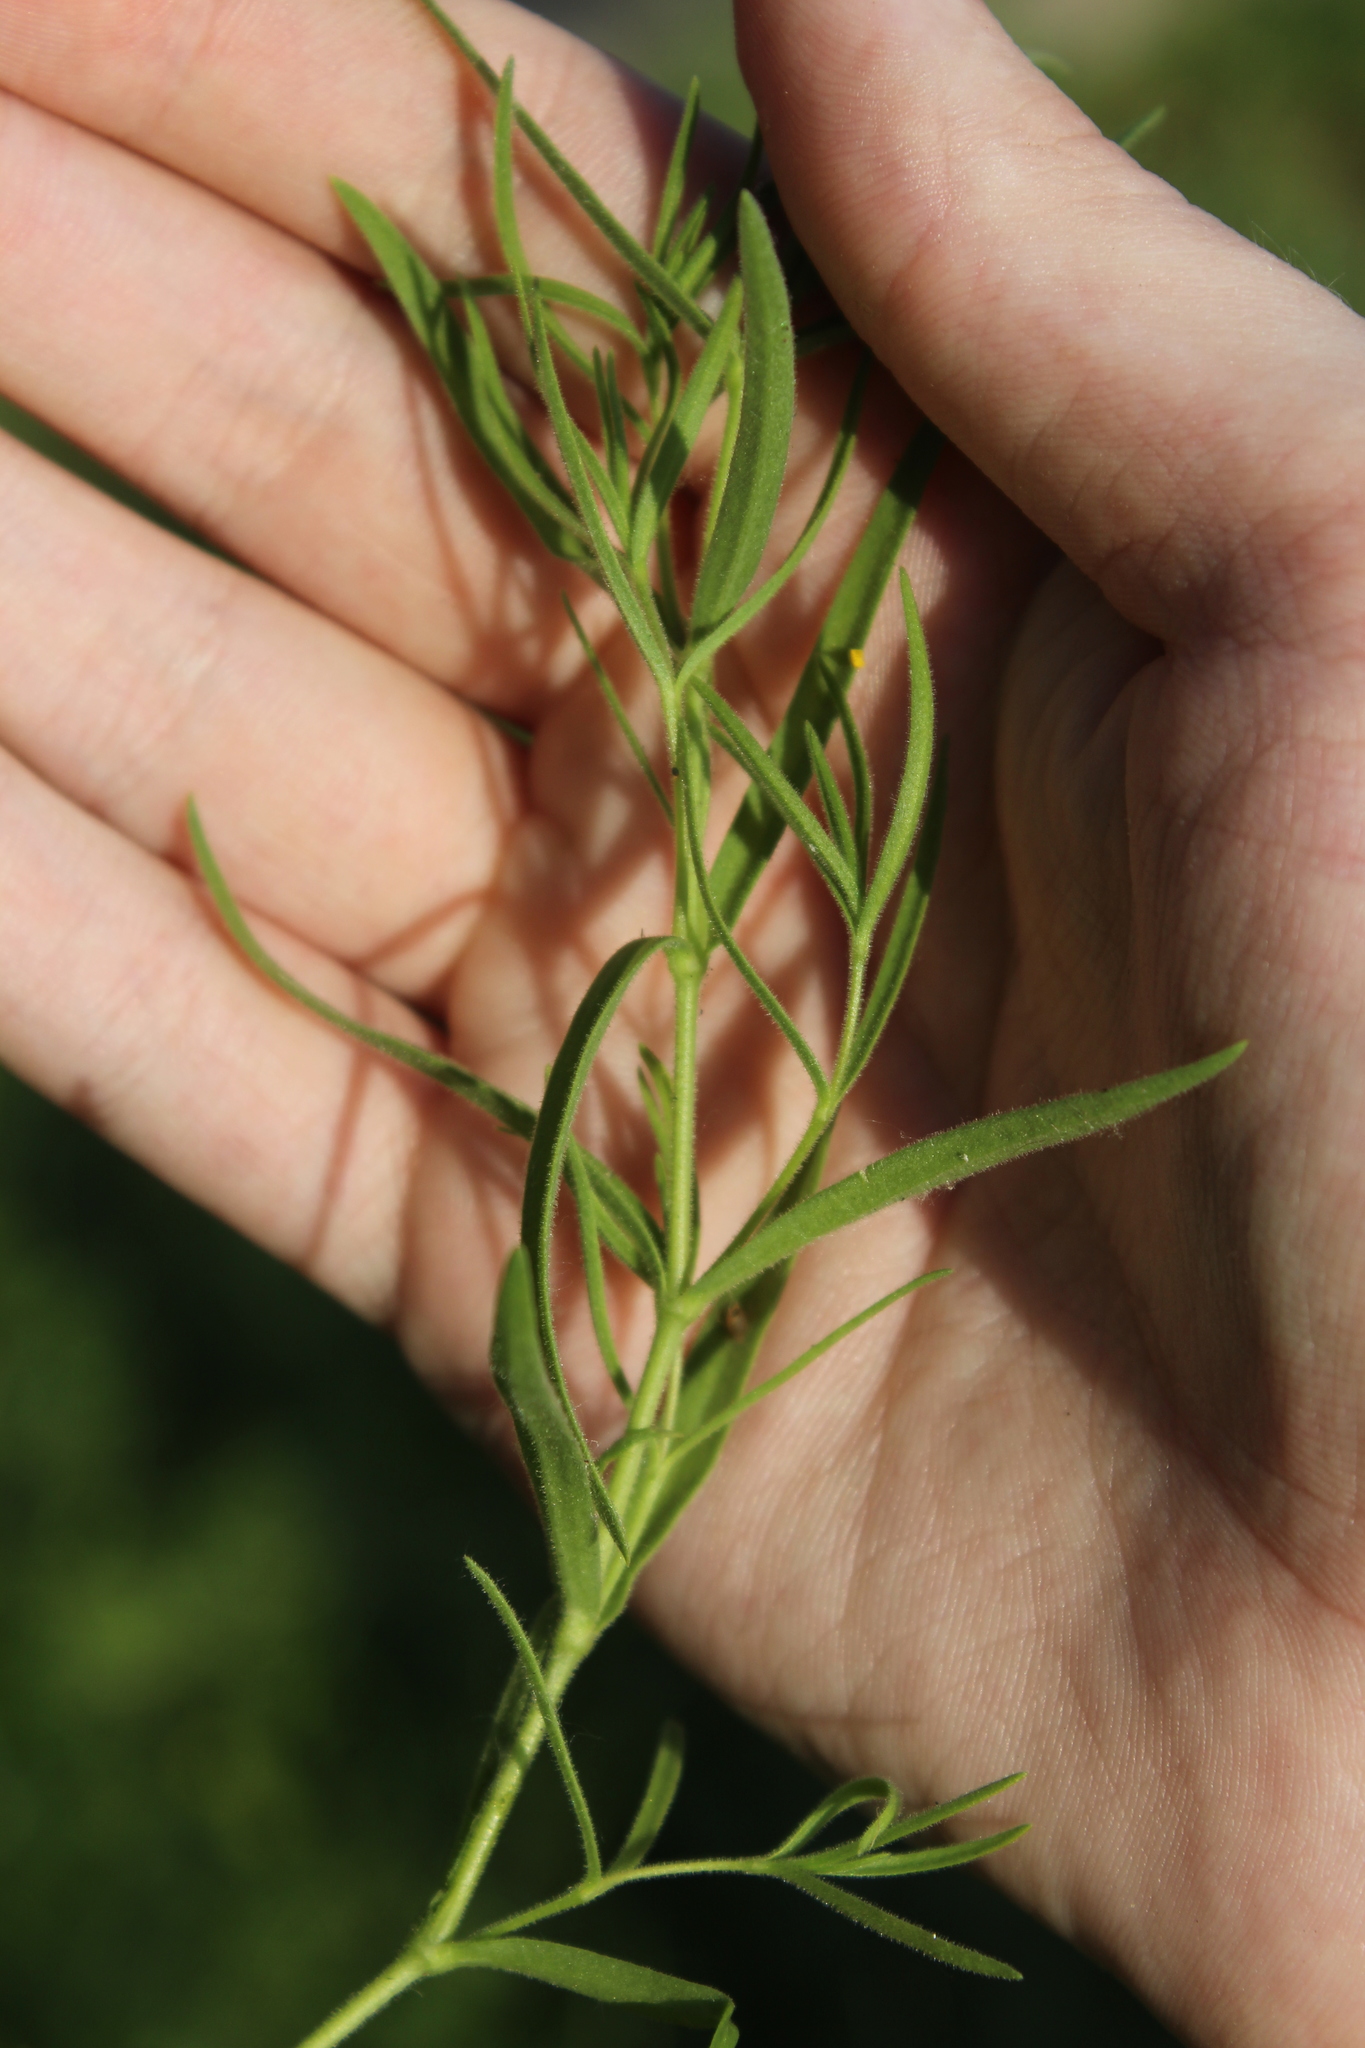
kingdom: Plantae
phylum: Tracheophyta
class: Magnoliopsida
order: Caryophyllales
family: Caryophyllaceae
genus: Gypsophila
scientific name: Gypsophila paniculata
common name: Baby's-breath
